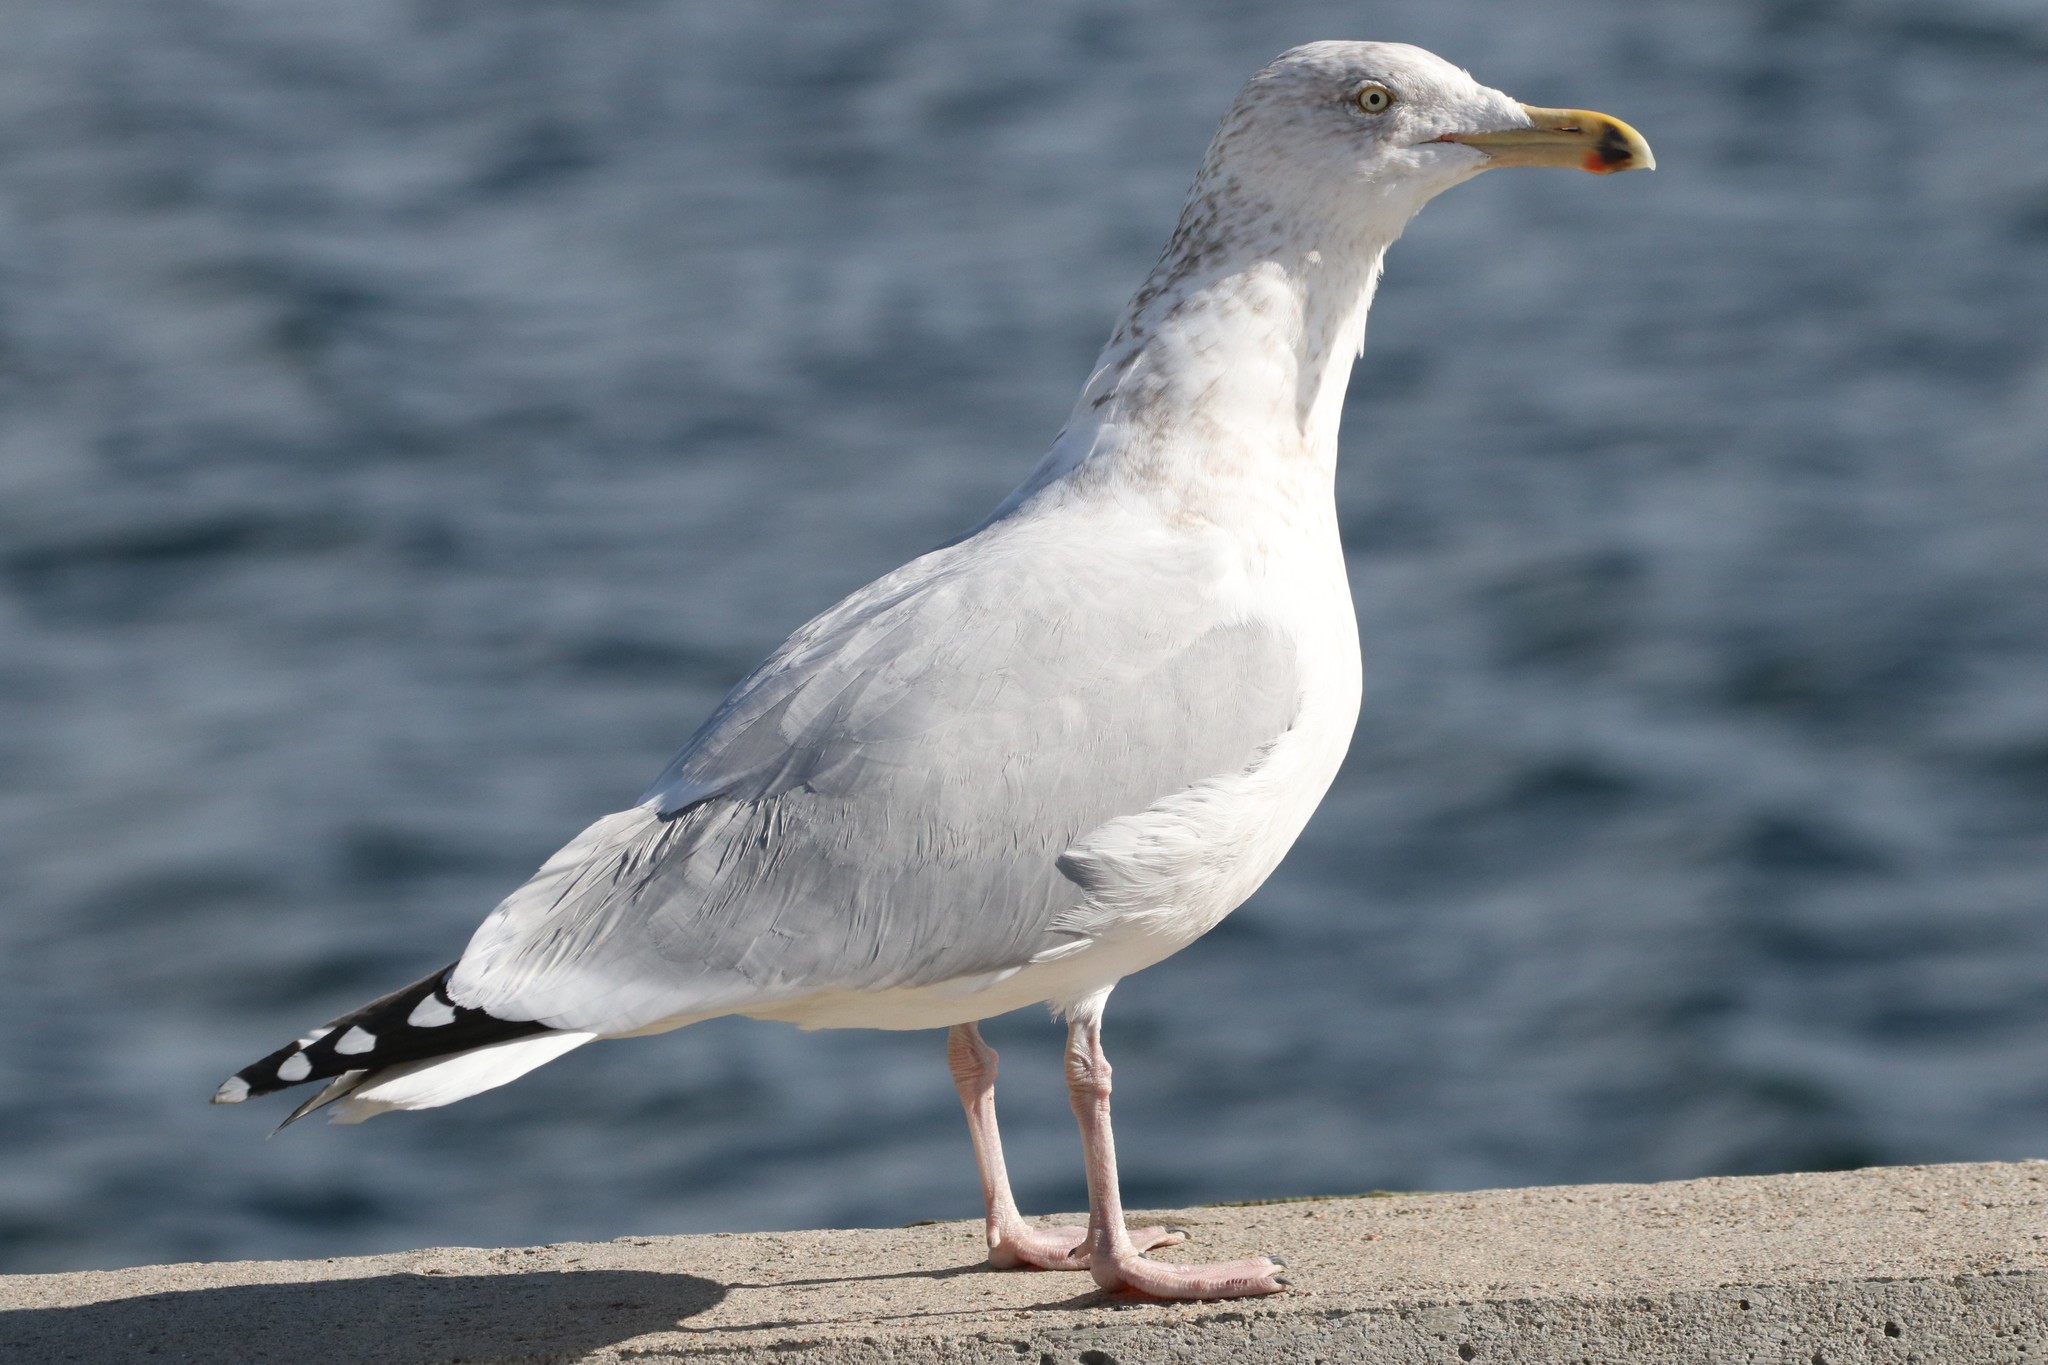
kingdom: Animalia
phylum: Chordata
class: Aves
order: Charadriiformes
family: Laridae
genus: Larus
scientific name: Larus argentatus
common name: Herring gull
